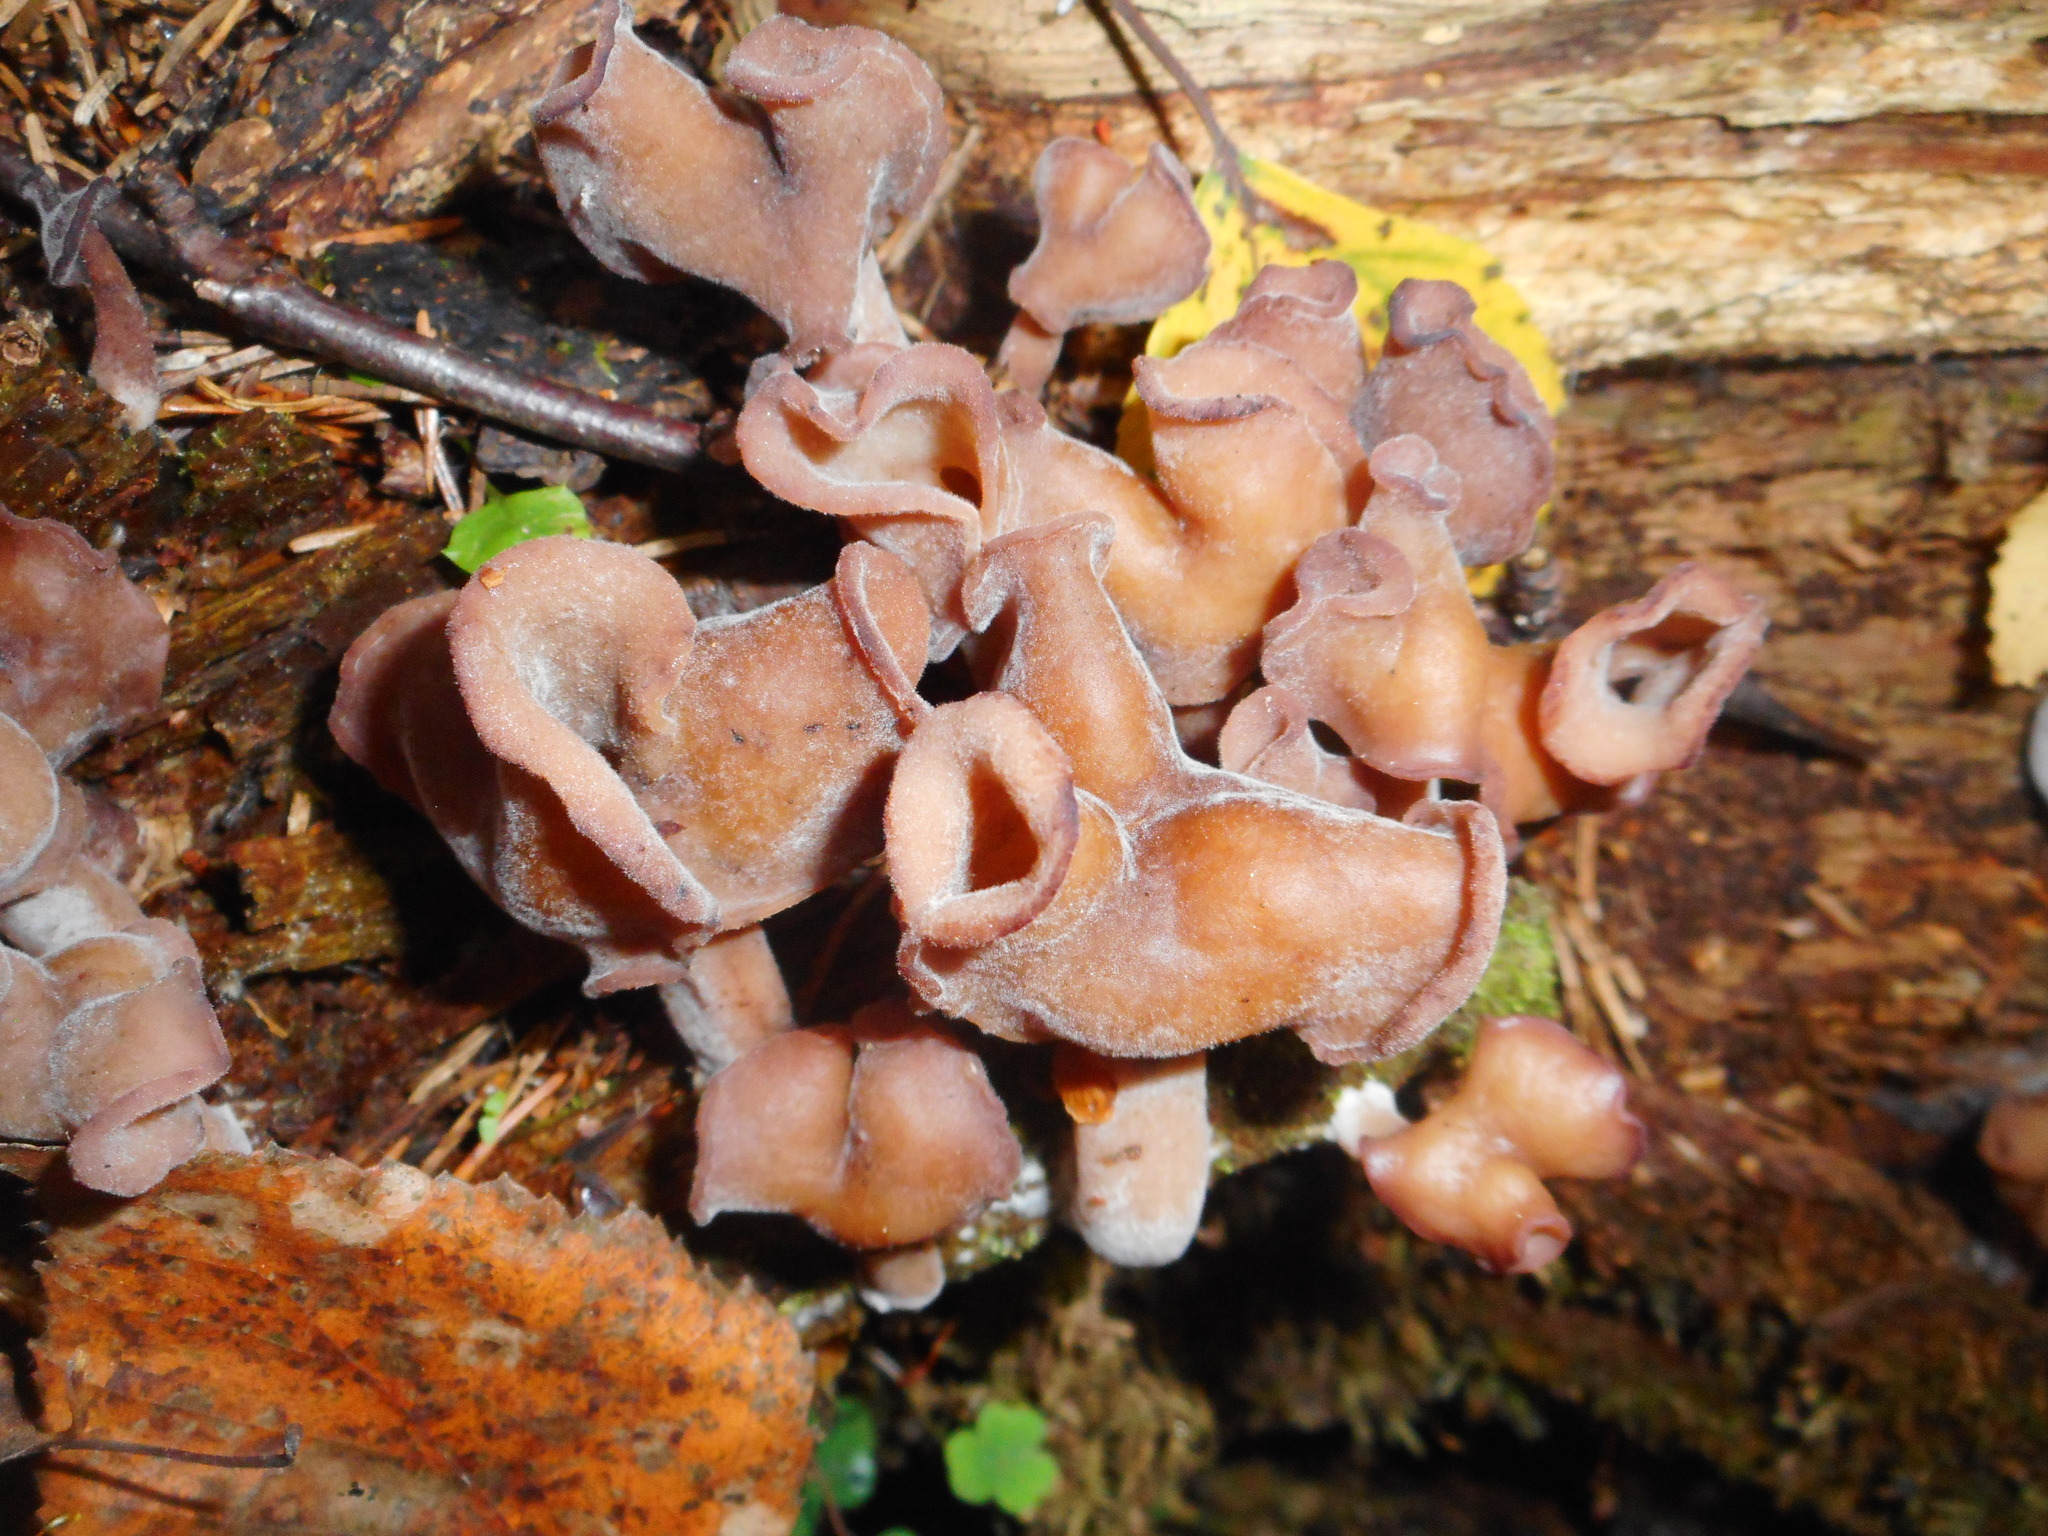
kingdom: Fungi
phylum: Ascomycota
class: Pezizomycetes
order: Pezizales
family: Discinaceae
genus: Gyromitra
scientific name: Gyromitra infula
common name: Pouched false morel
